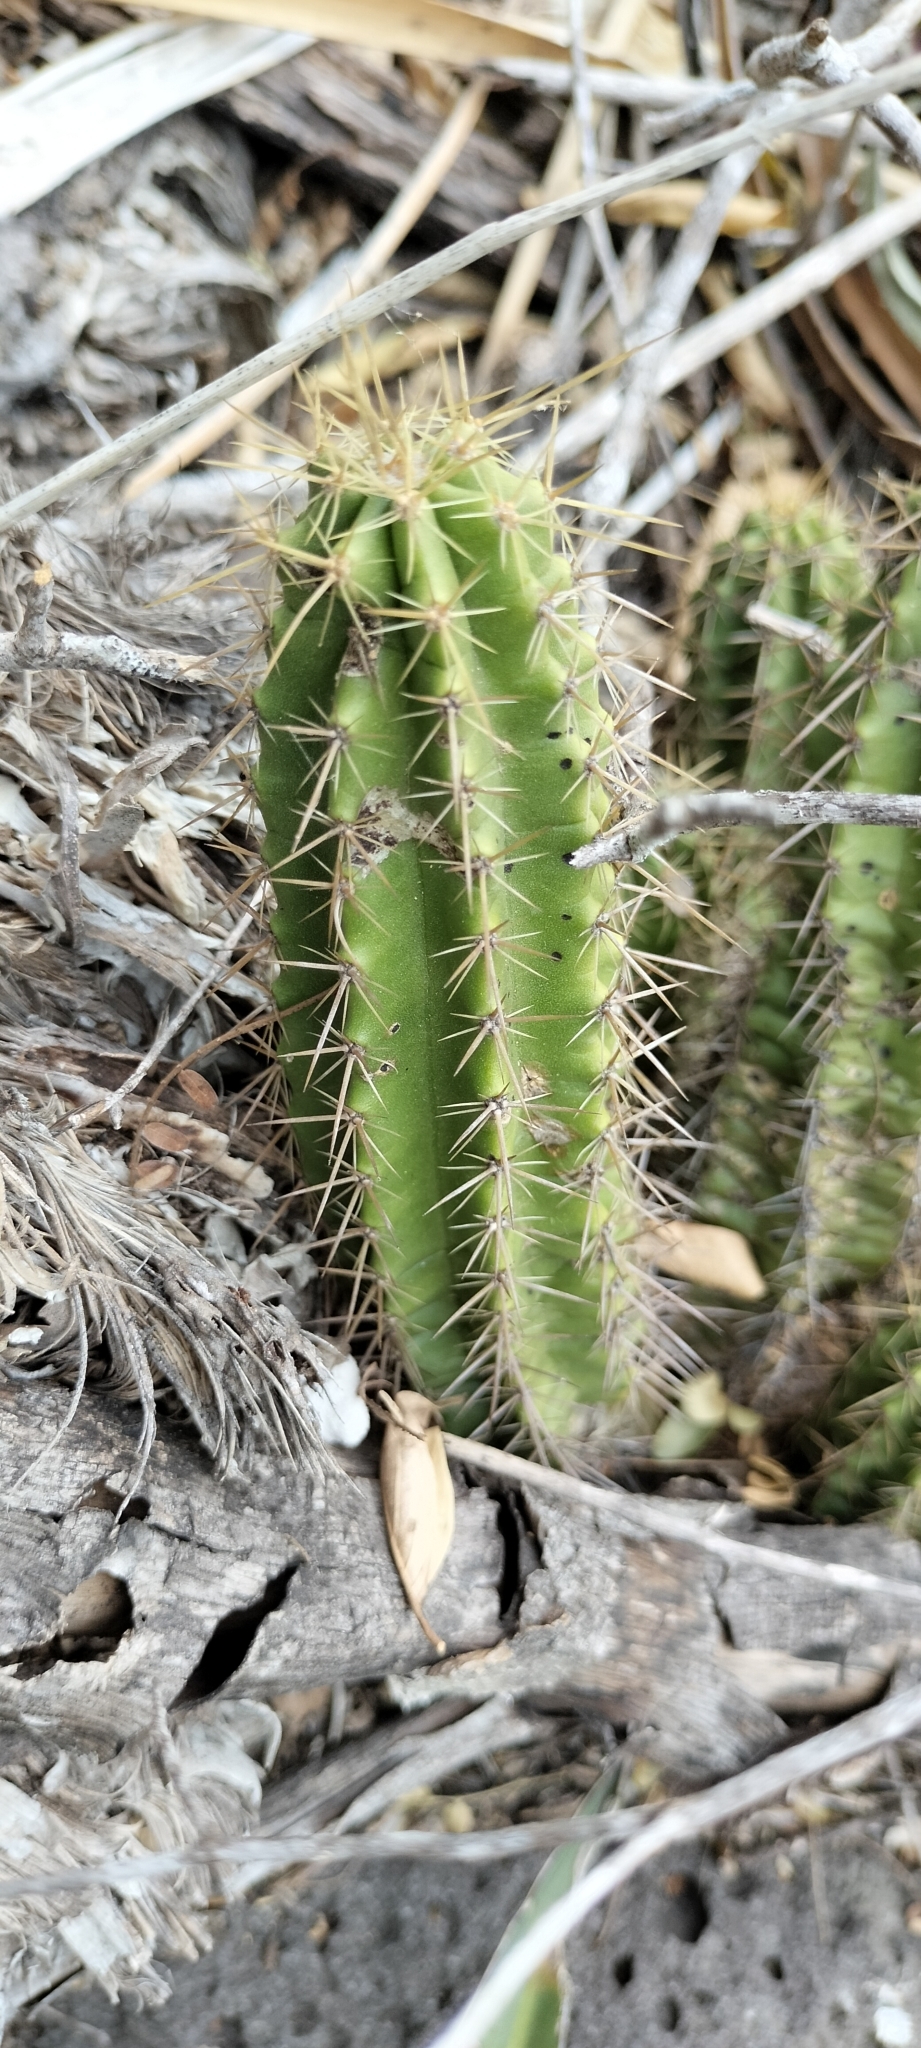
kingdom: Plantae
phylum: Tracheophyta
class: Magnoliopsida
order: Caryophyllales
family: Cactaceae
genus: Echinocereus
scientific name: Echinocereus viereckii
